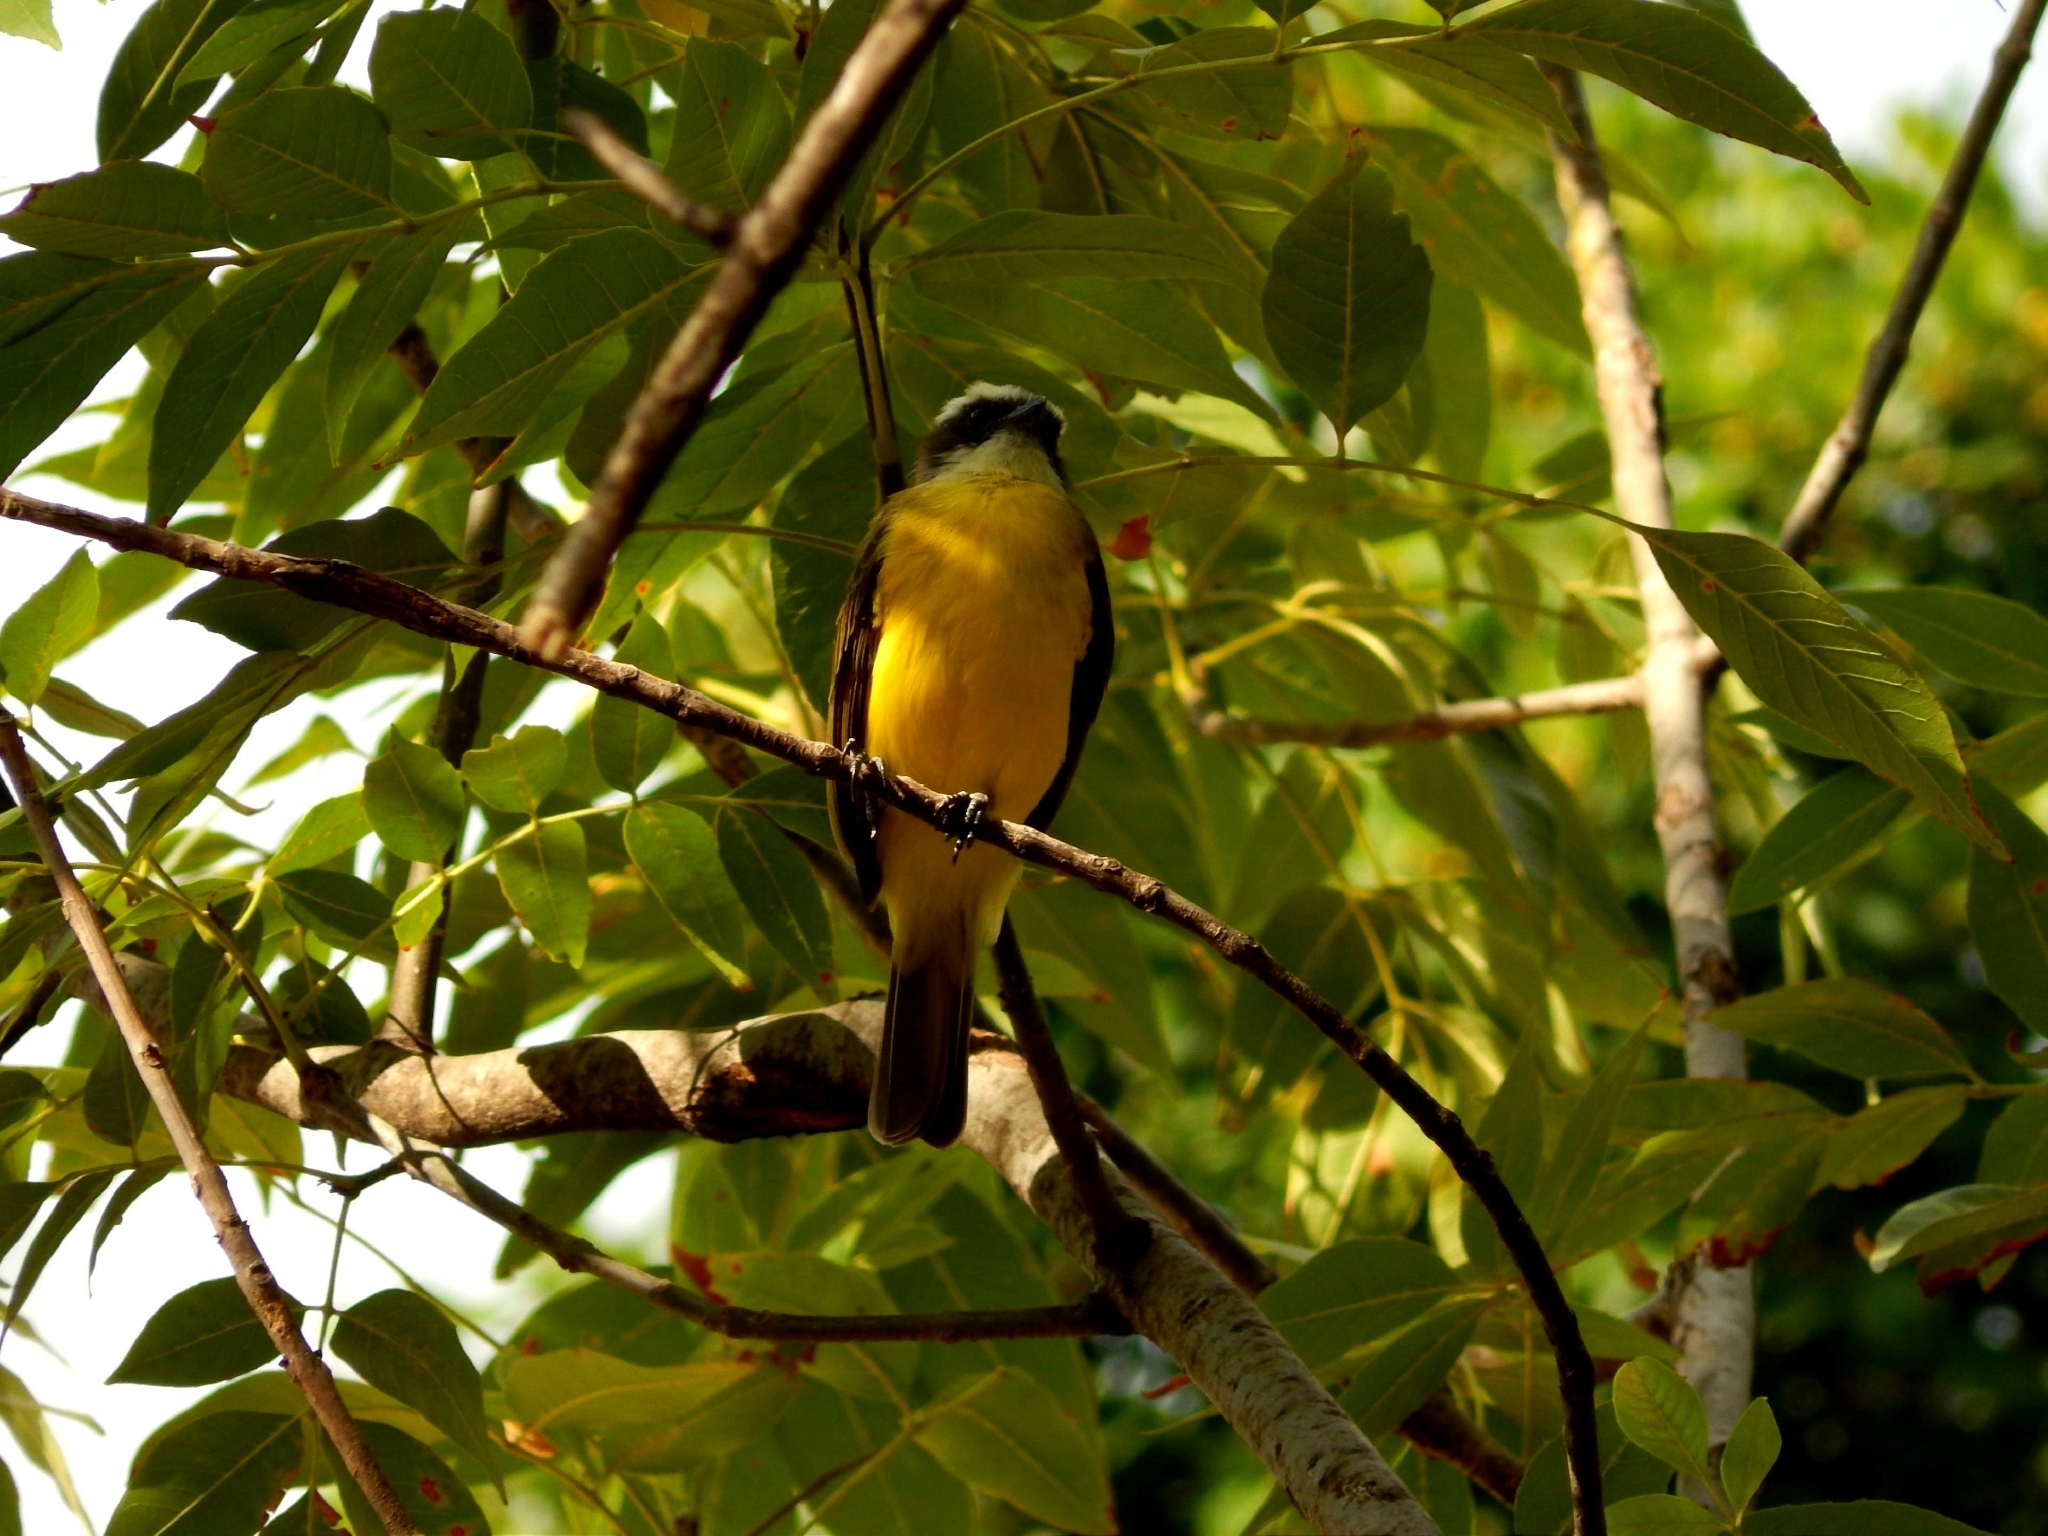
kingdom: Animalia
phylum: Chordata
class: Aves
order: Passeriformes
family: Tyrannidae
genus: Myiozetetes
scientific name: Myiozetetes similis
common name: Social flycatcher
